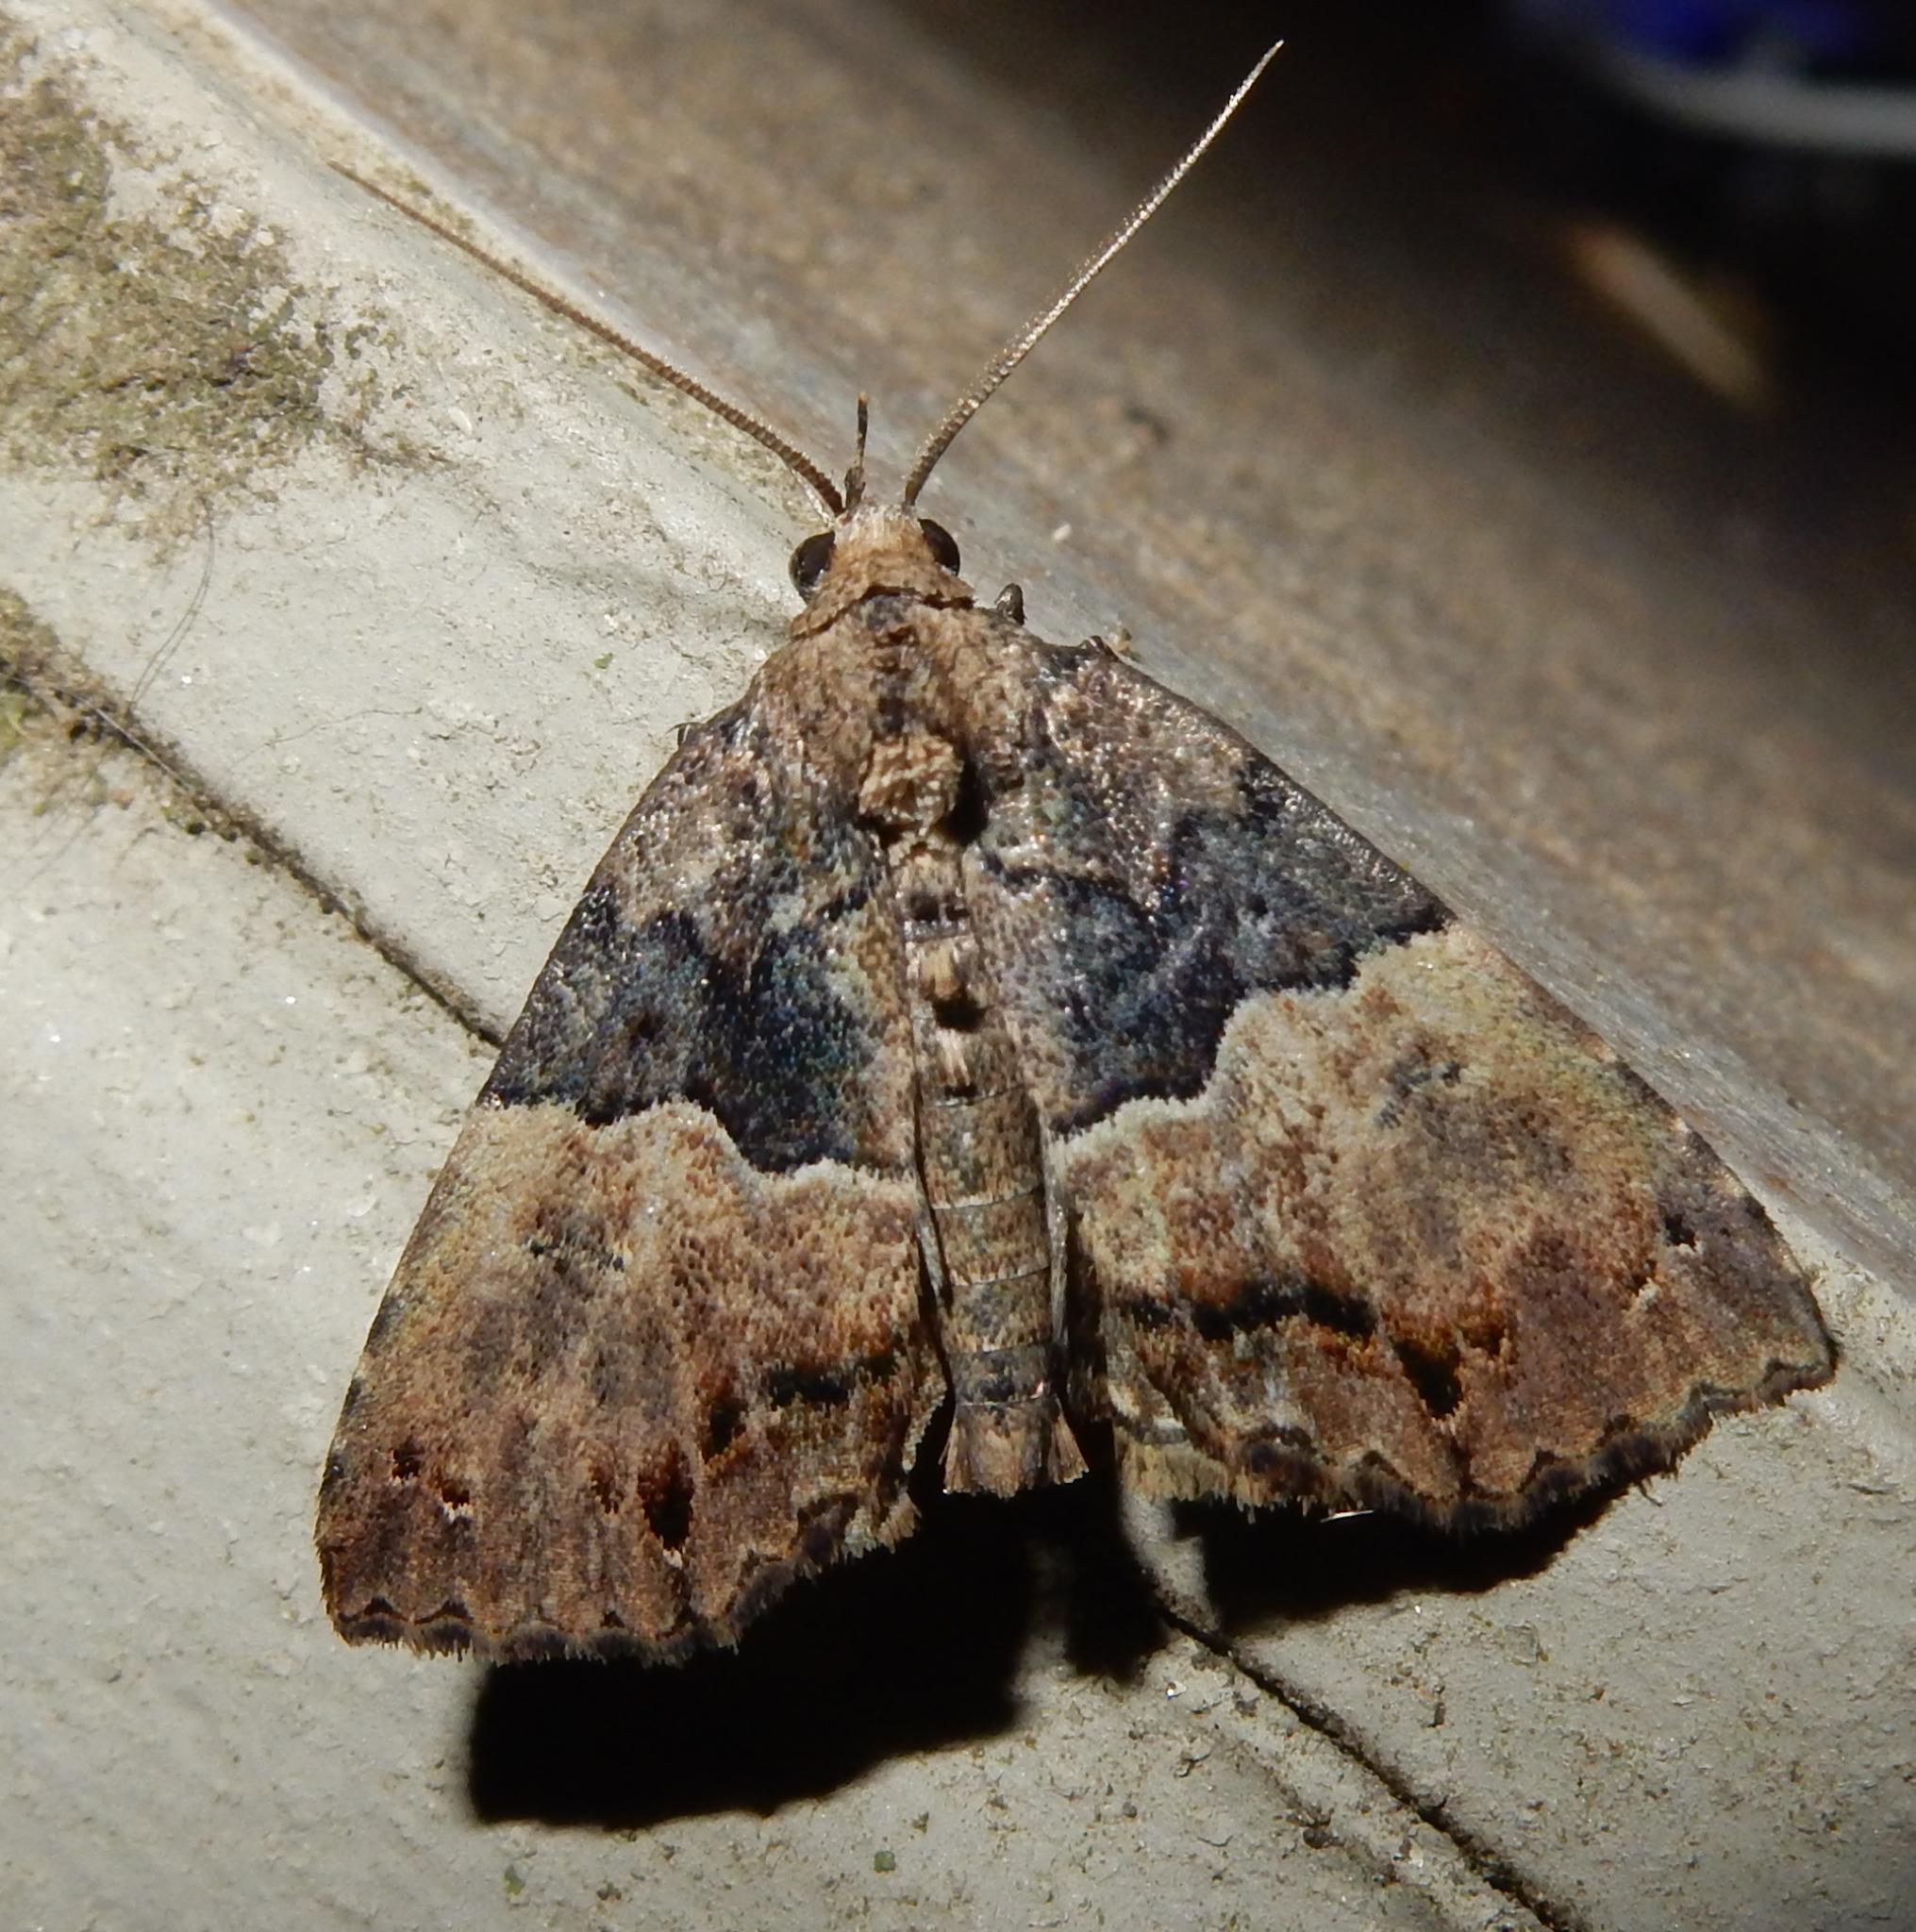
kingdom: Animalia
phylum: Arthropoda
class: Insecta
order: Lepidoptera
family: Erebidae
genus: Sarmatia
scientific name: Sarmatia interitalis
